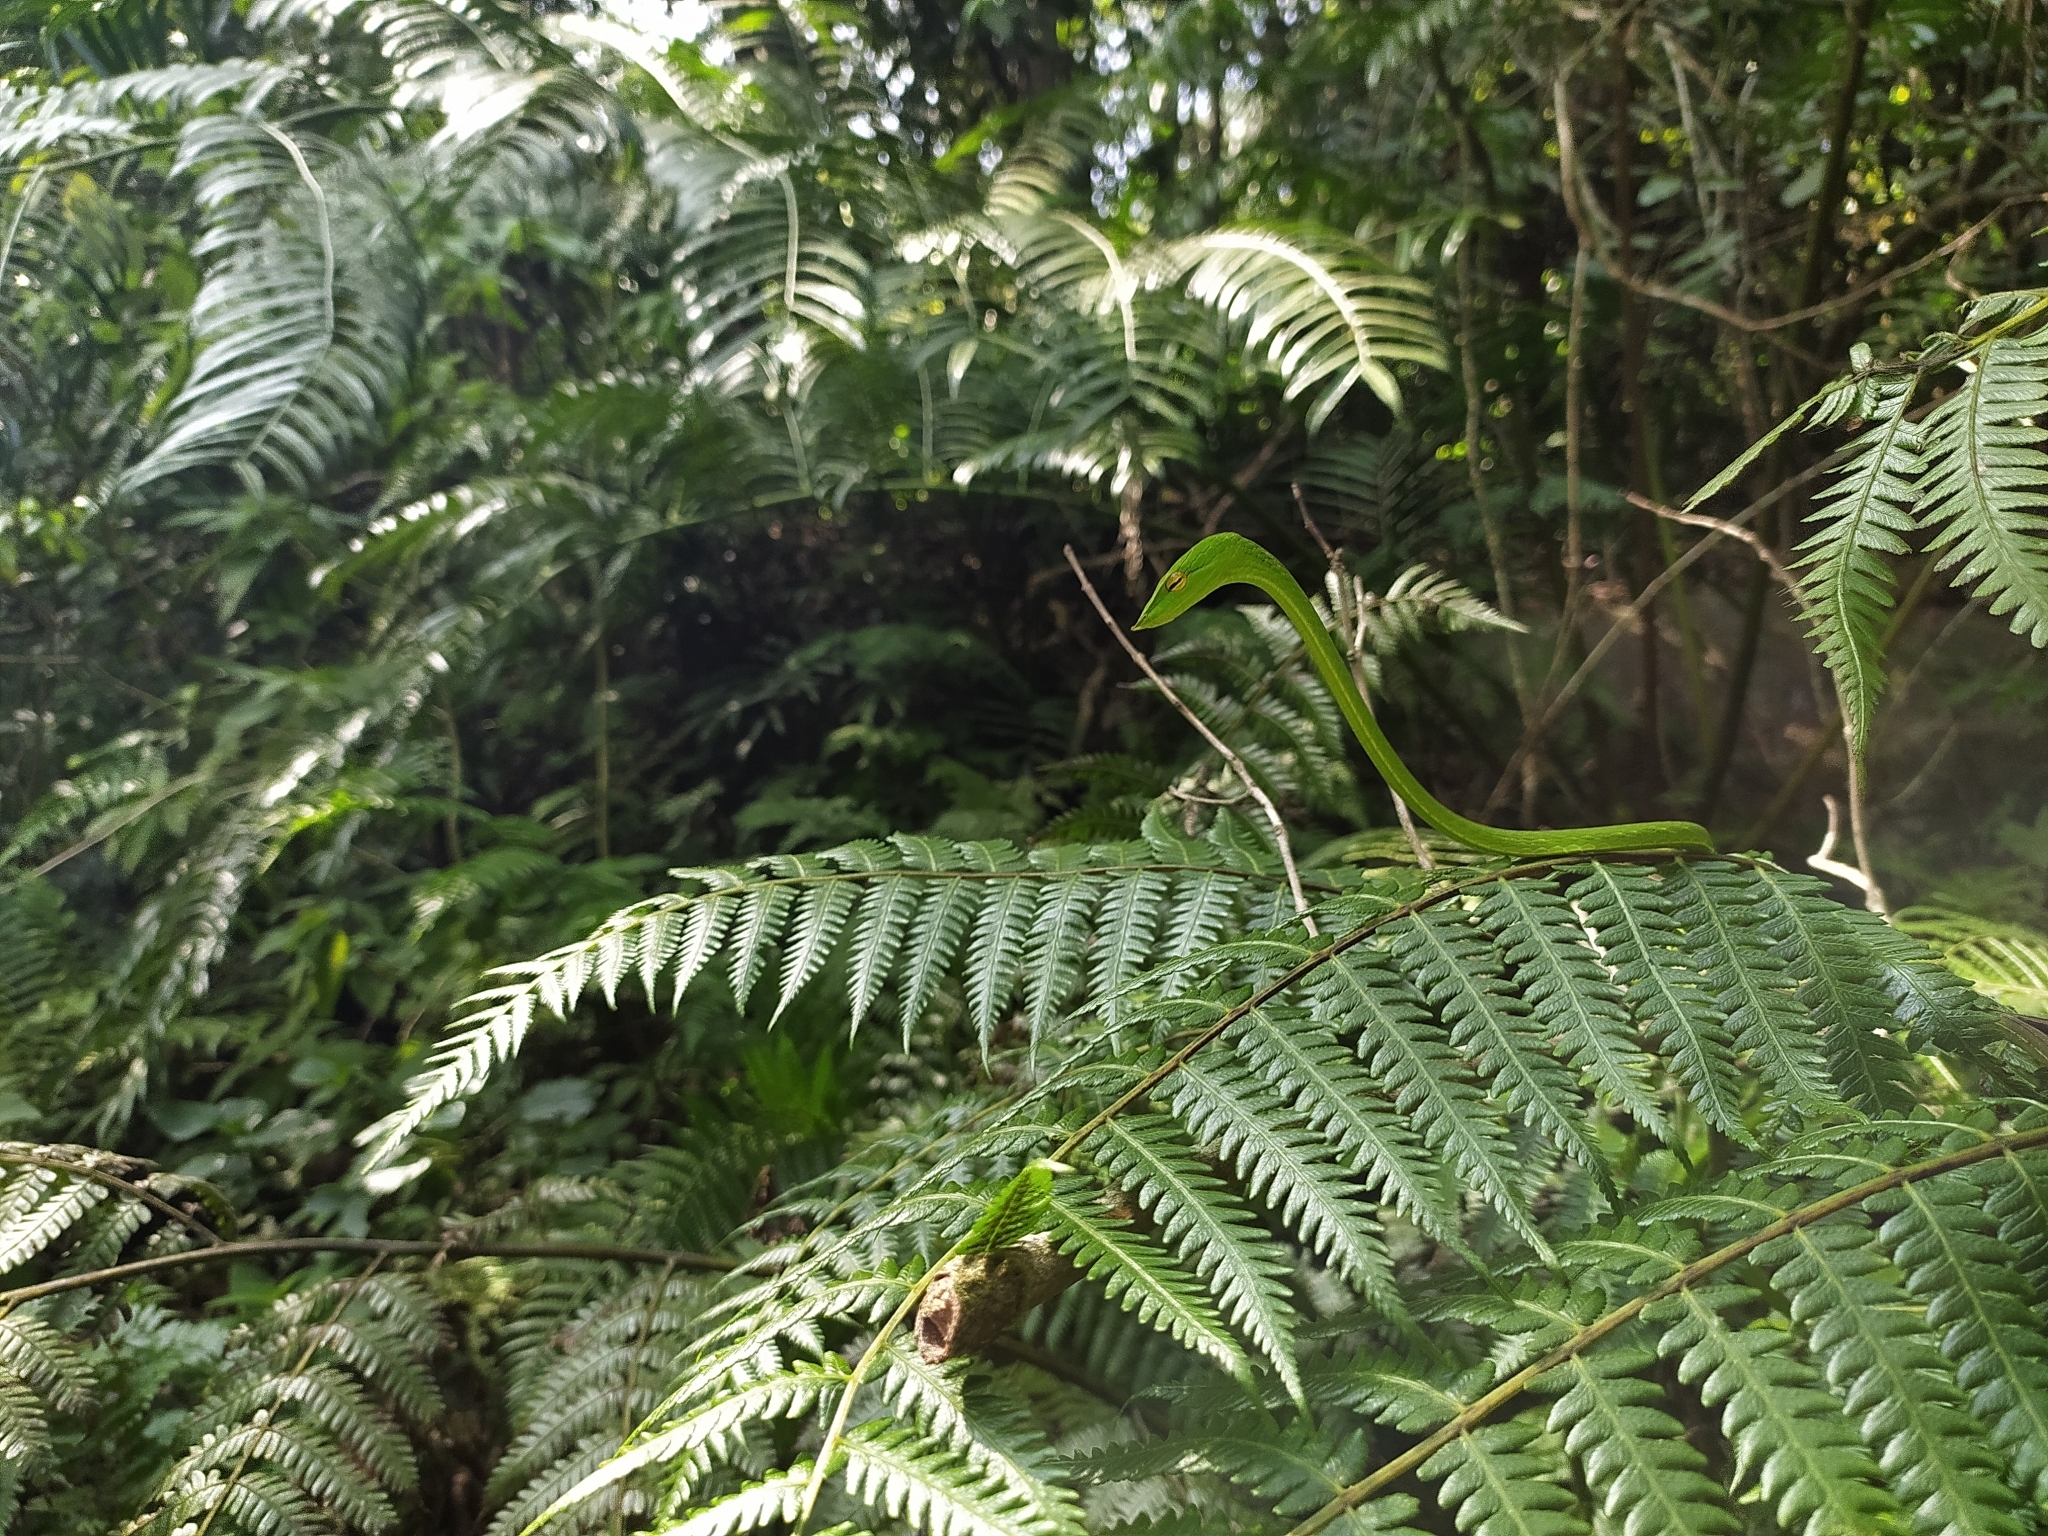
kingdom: Animalia
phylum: Chordata
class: Squamata
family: Colubridae
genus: Ahaetulla
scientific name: Ahaetulla farnsworthi
